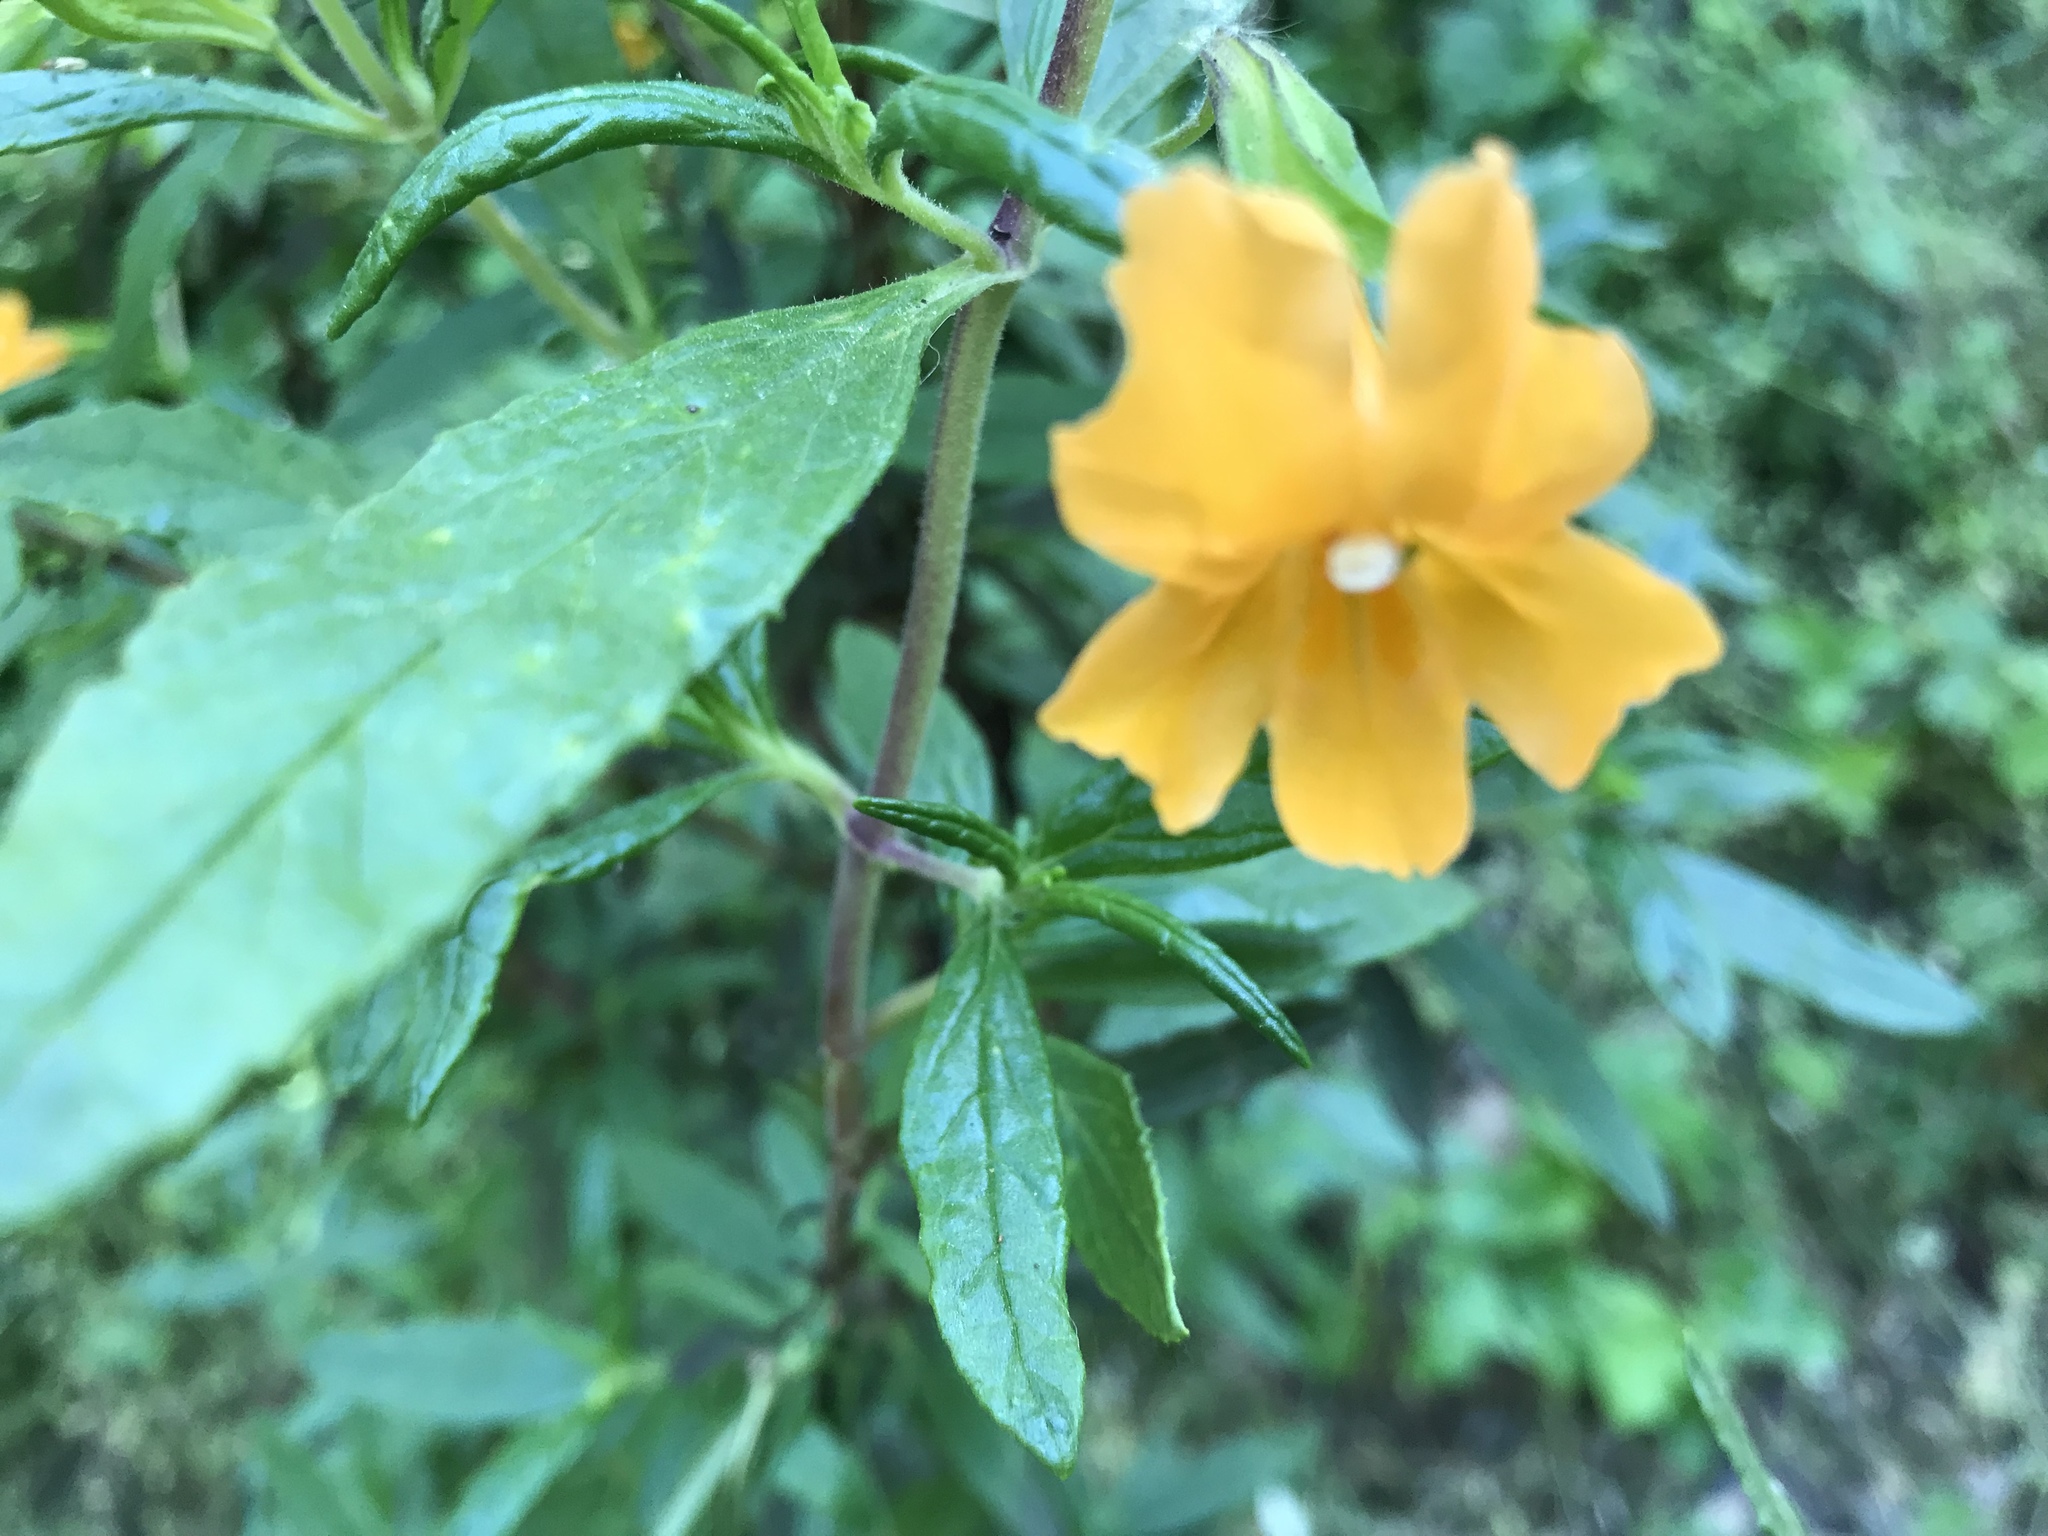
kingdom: Plantae
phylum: Tracheophyta
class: Magnoliopsida
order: Lamiales
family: Phrymaceae
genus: Diplacus
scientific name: Diplacus aurantiacus
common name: Bush monkey-flower
